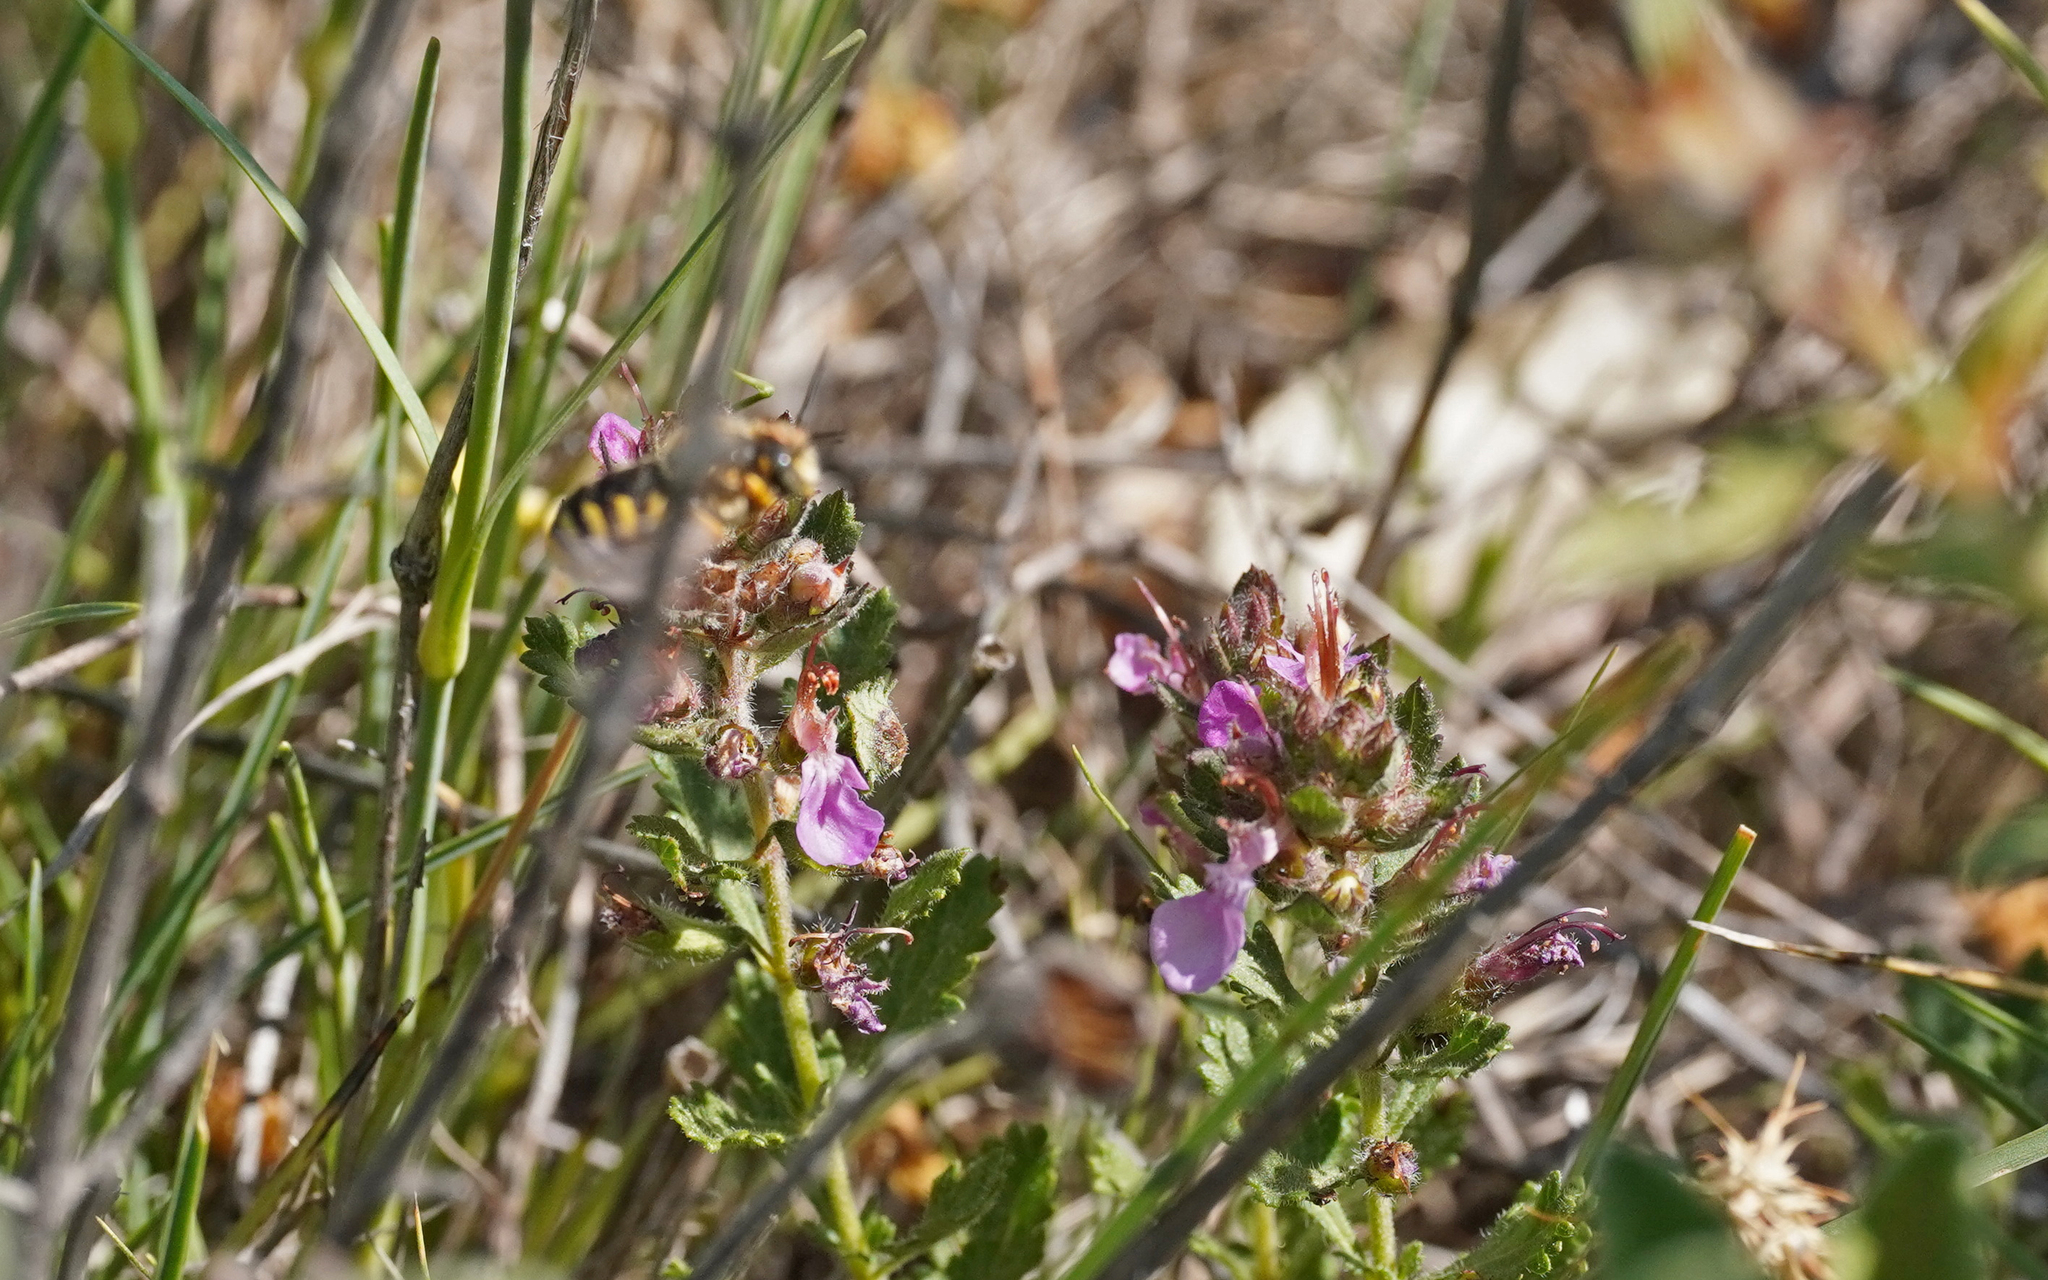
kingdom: Animalia
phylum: Arthropoda
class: Insecta
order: Hymenoptera
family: Megachilidae
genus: Rhodanthidium
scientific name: Rhodanthidium septemdentatum
